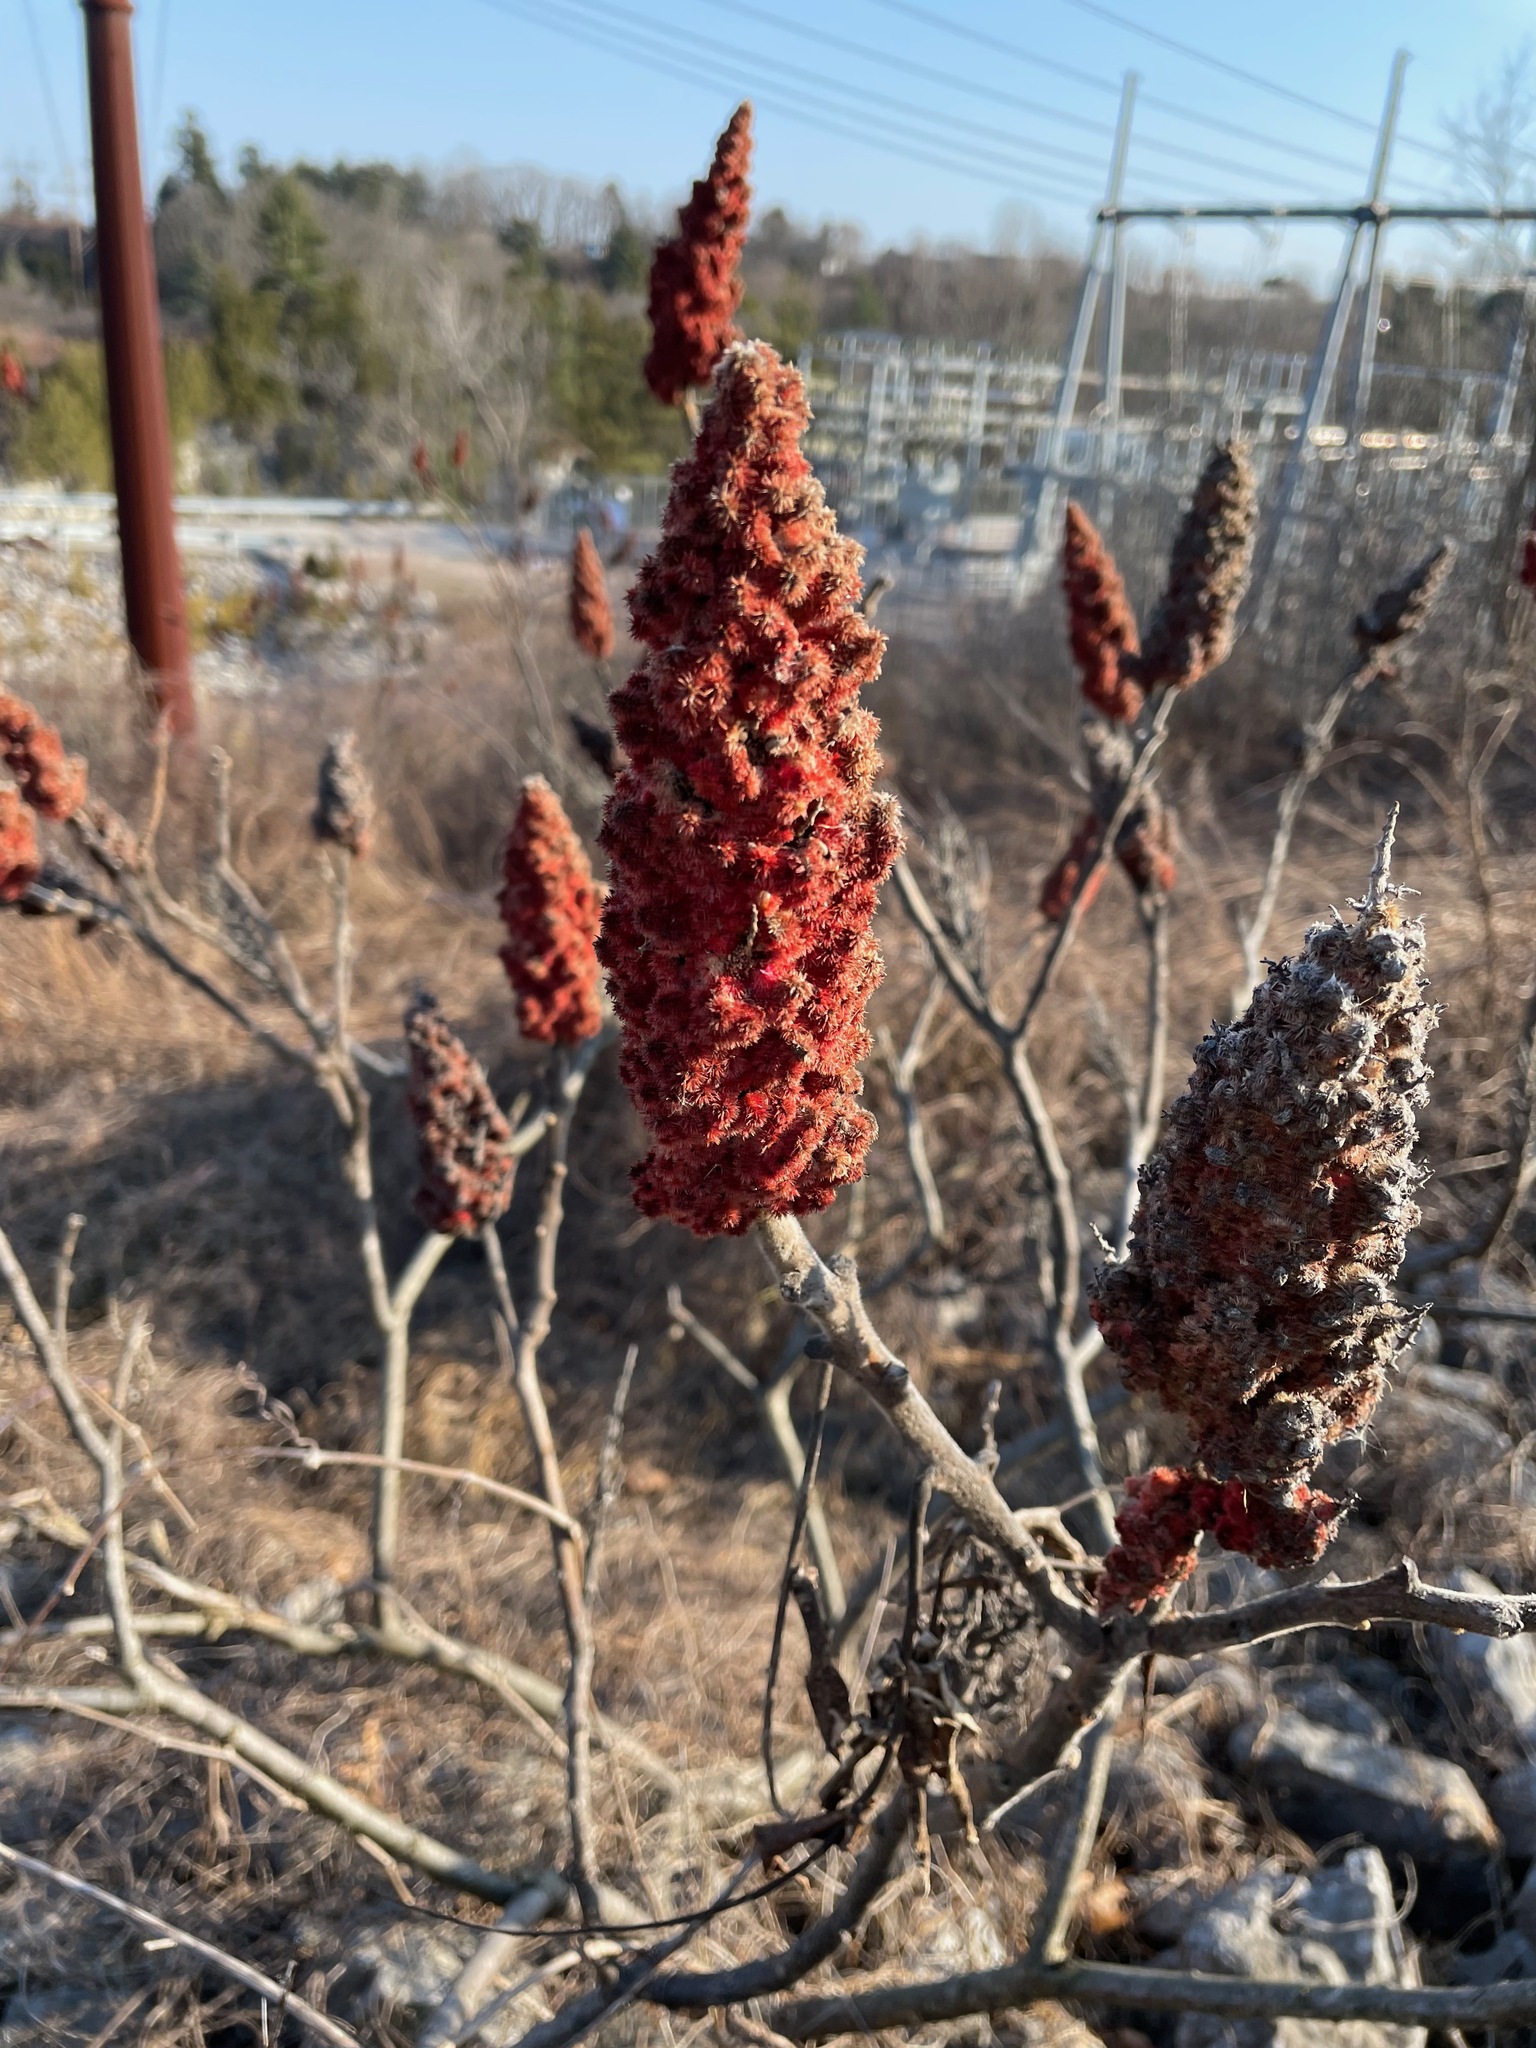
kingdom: Plantae
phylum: Tracheophyta
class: Magnoliopsida
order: Sapindales
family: Anacardiaceae
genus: Rhus
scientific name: Rhus typhina
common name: Staghorn sumac
